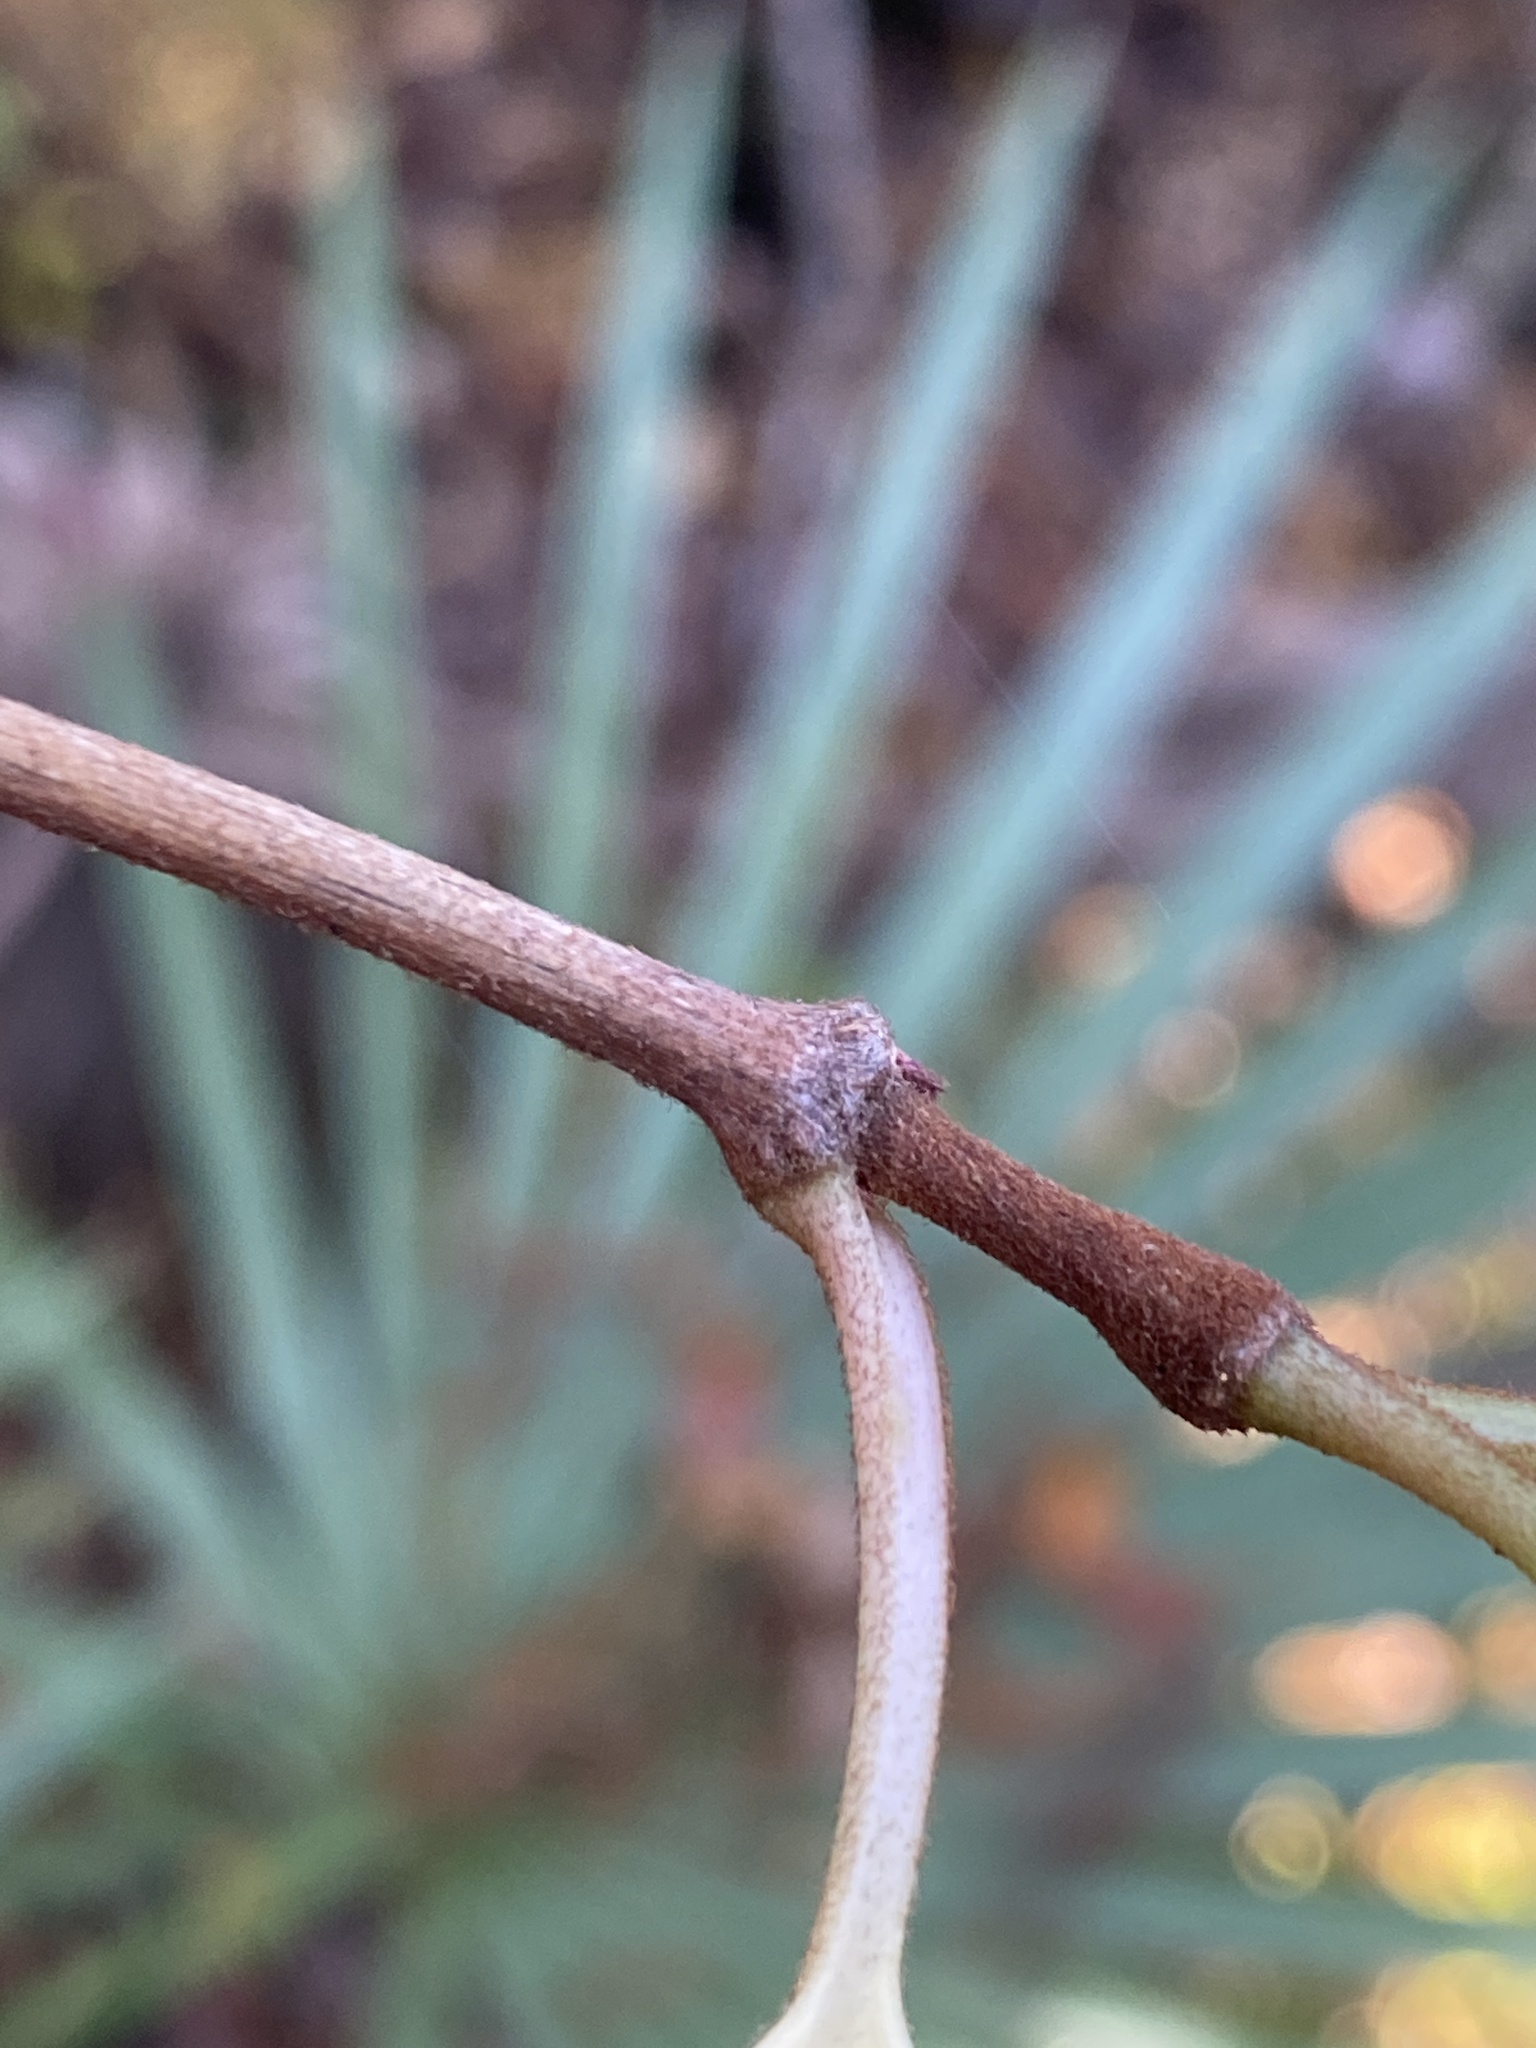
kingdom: Plantae
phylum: Tracheophyta
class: Magnoliopsida
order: Cornales
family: Hydrangeaceae
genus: Hydrangea
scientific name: Hydrangea barbara
